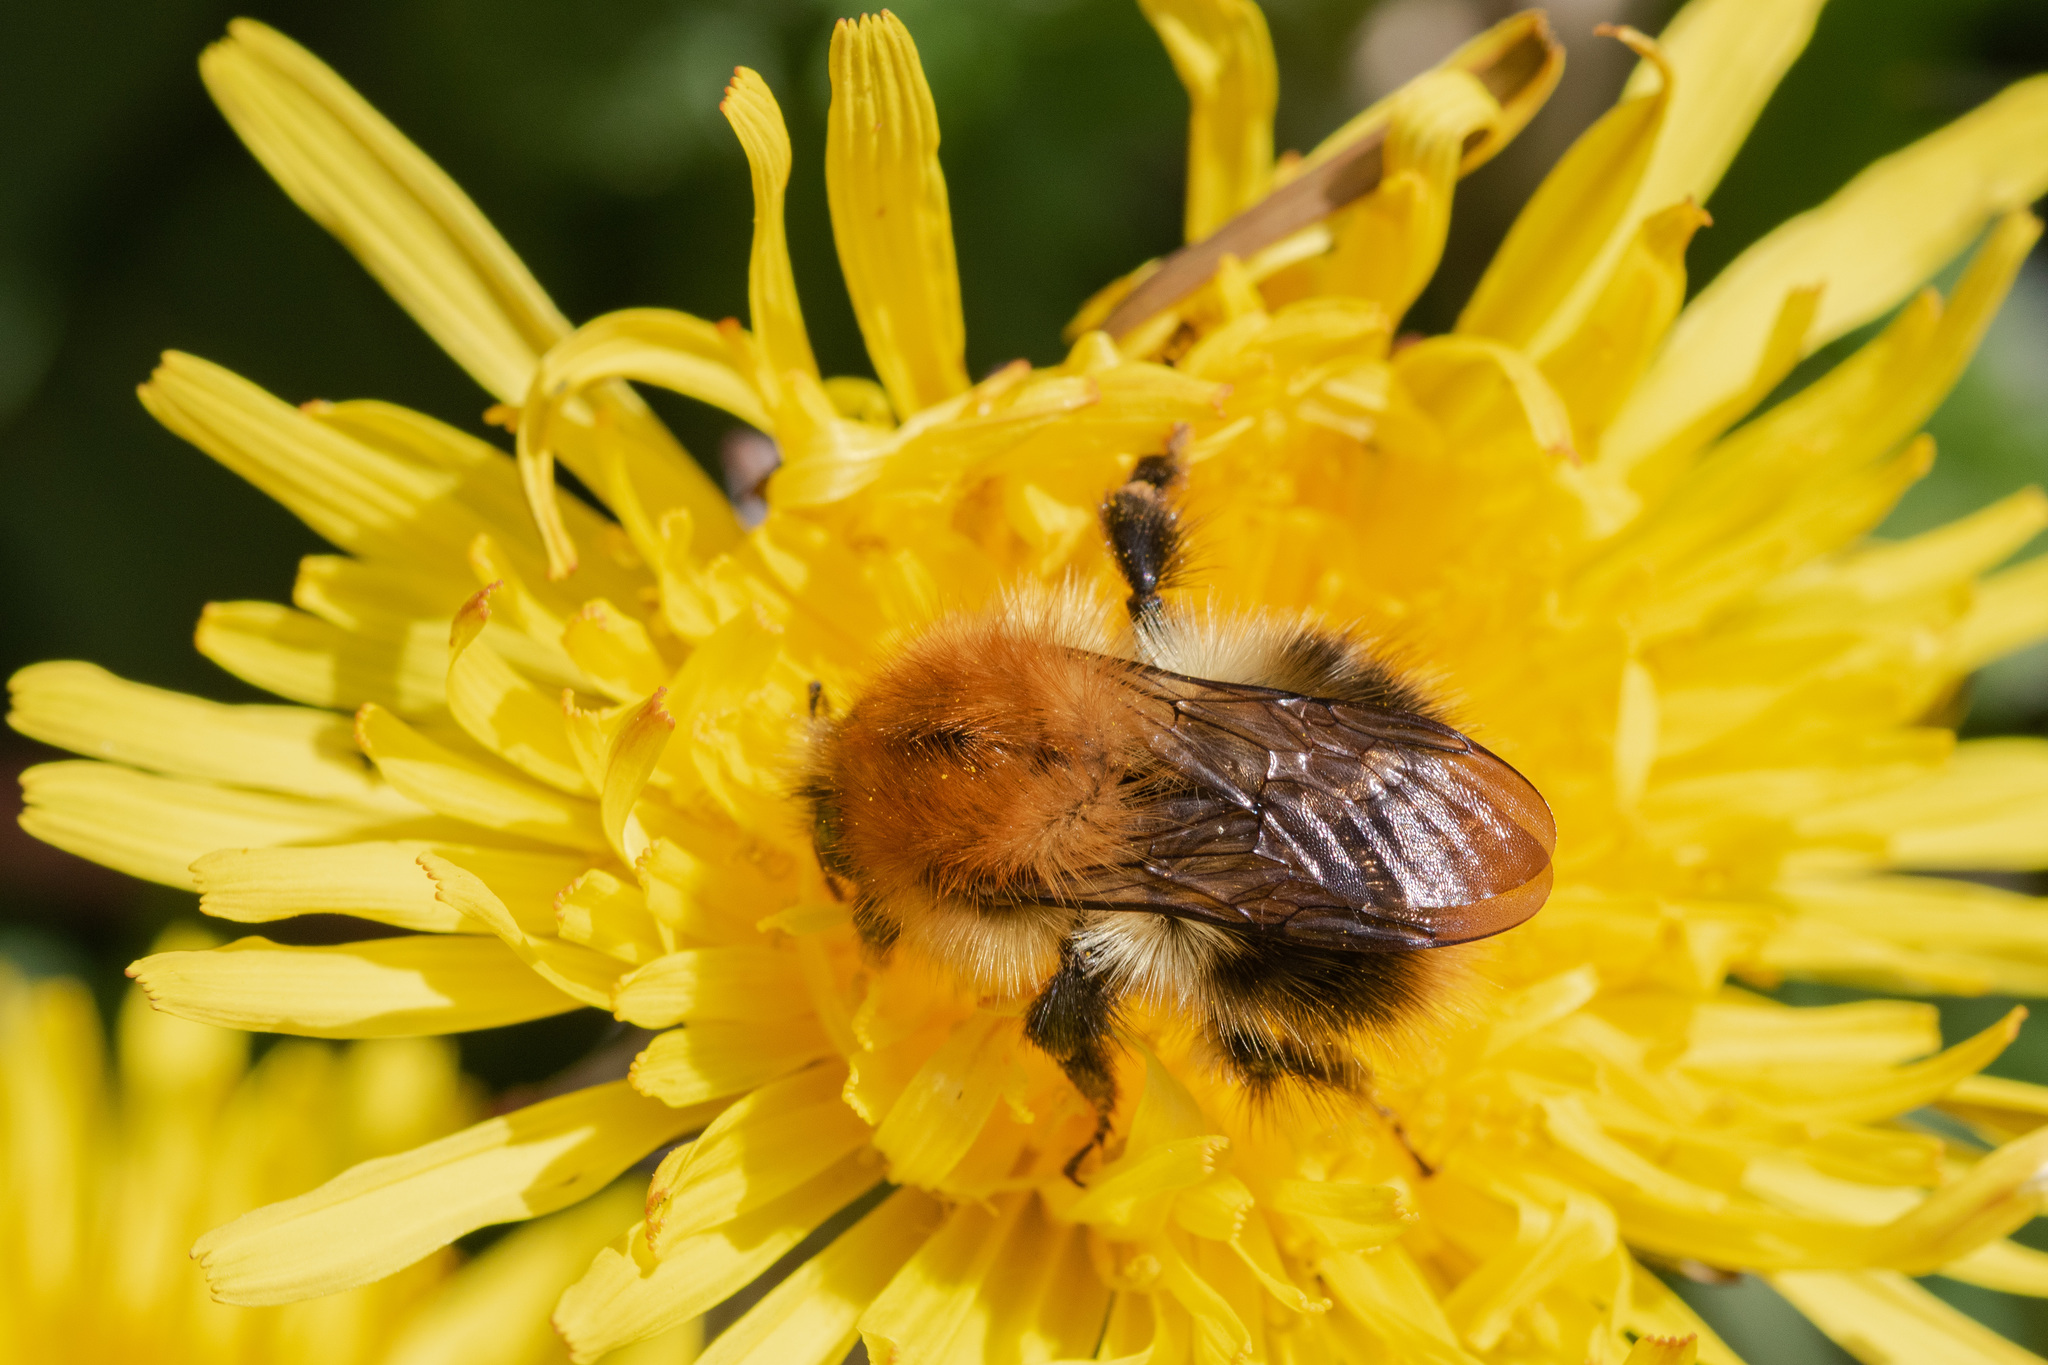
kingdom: Animalia
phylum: Arthropoda
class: Insecta
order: Hymenoptera
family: Apidae
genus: Bombus
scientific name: Bombus pascuorum
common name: Common carder bee
